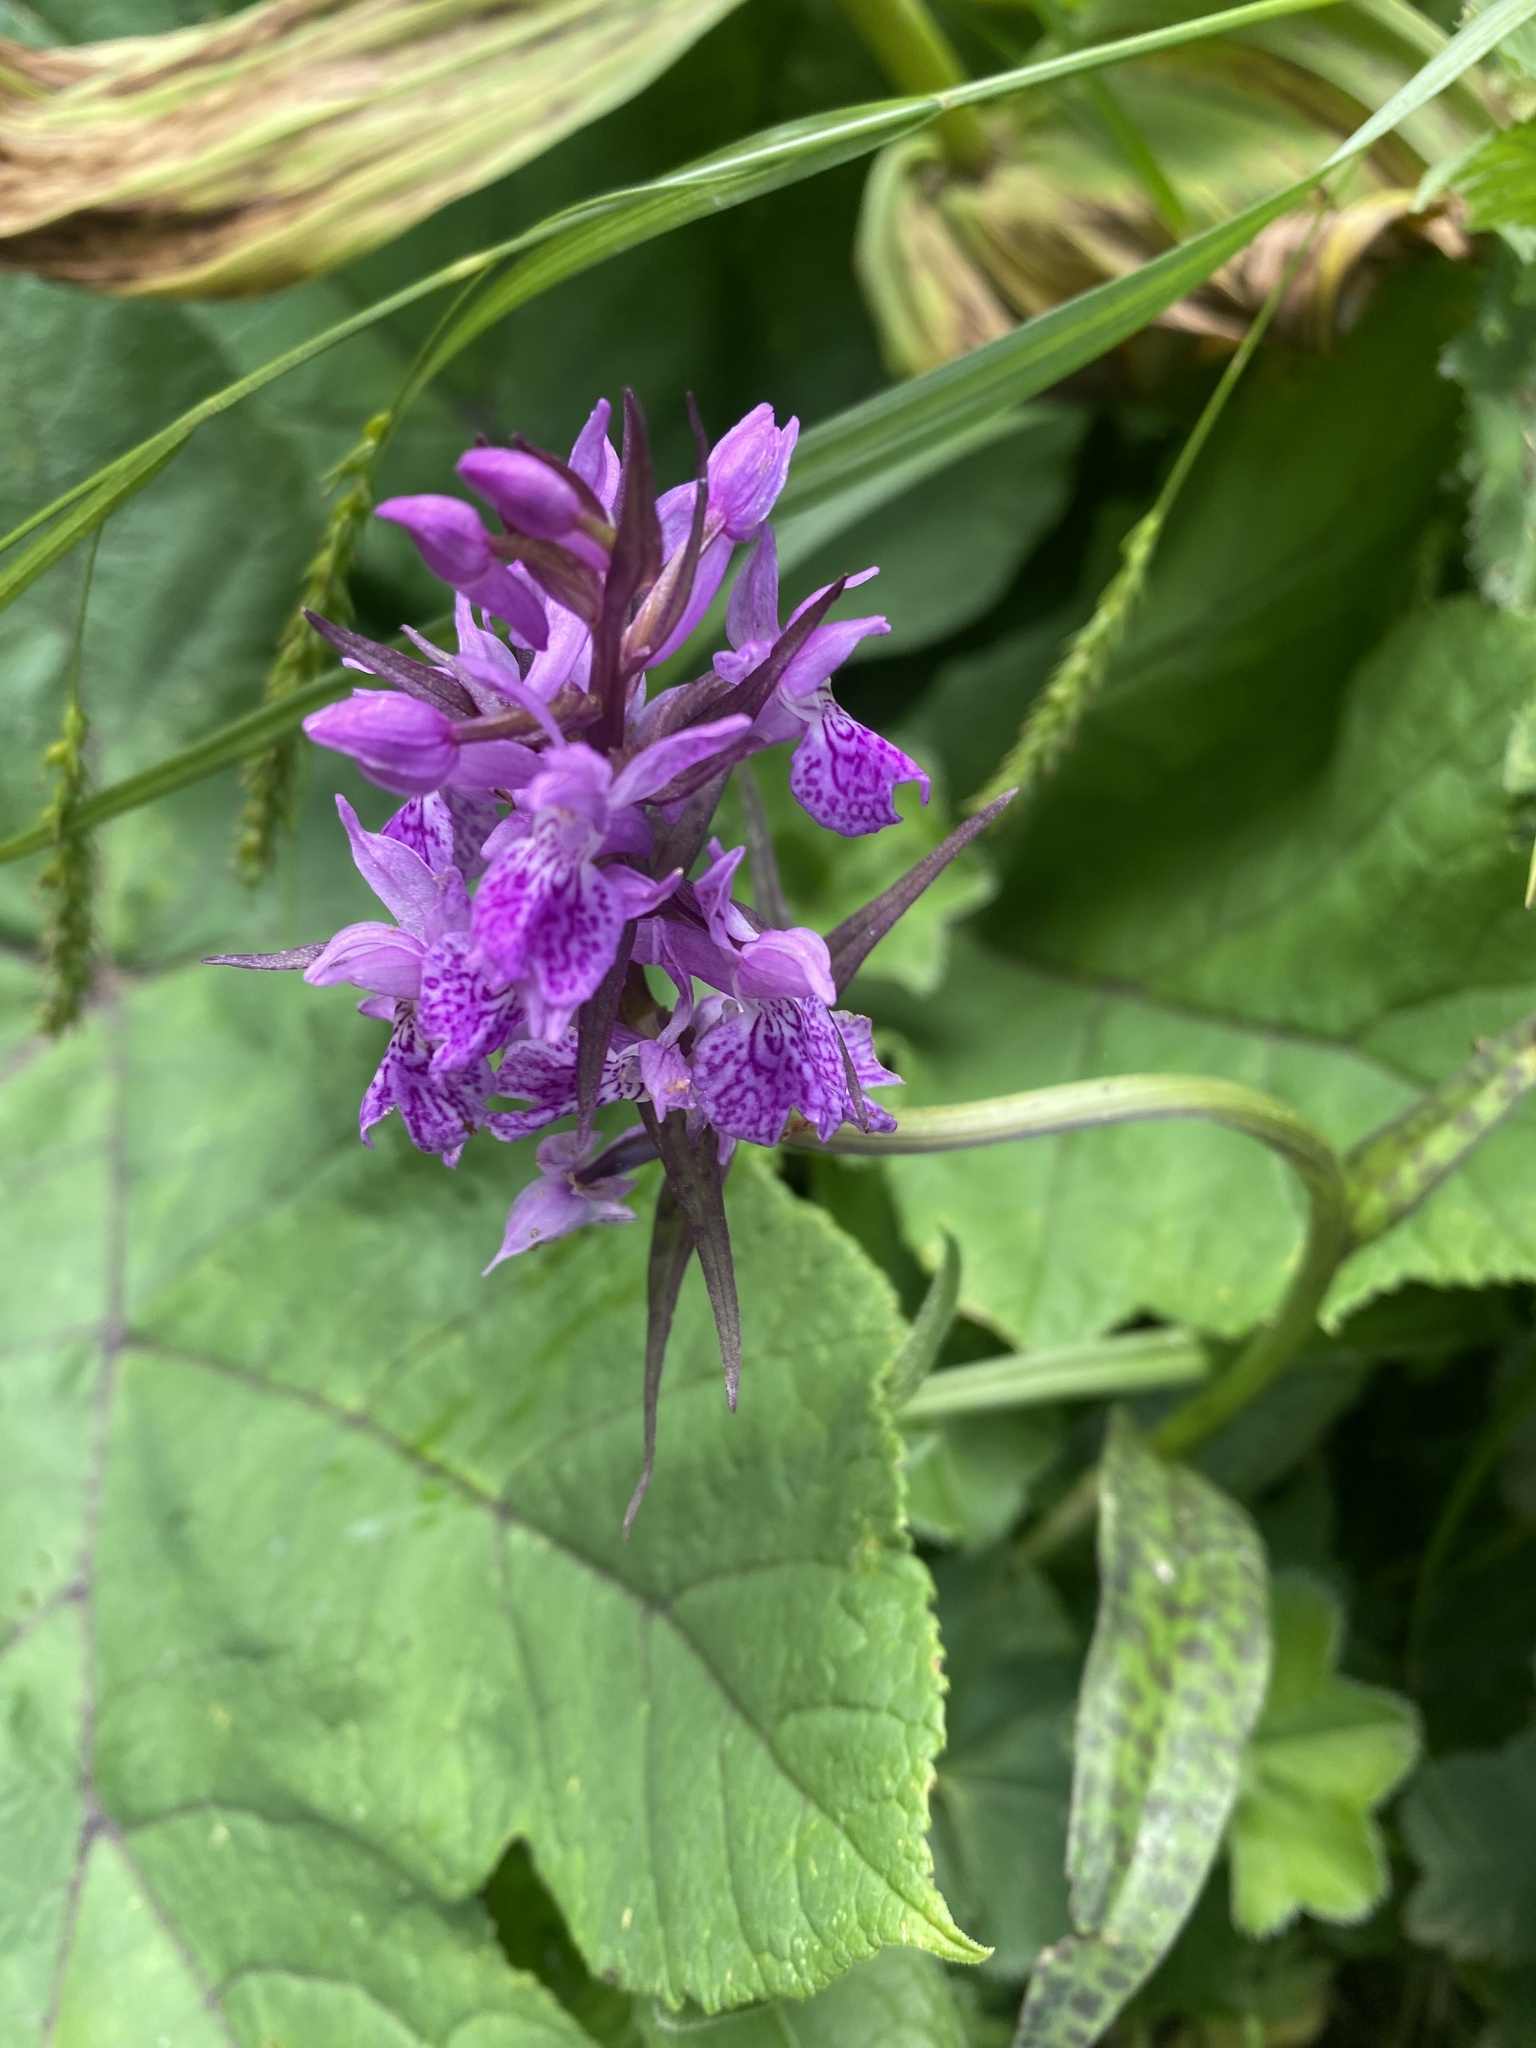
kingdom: Plantae
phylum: Tracheophyta
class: Liliopsida
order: Asparagales
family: Orchidaceae
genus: Dactylorhiza
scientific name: Dactylorhiza euxina
